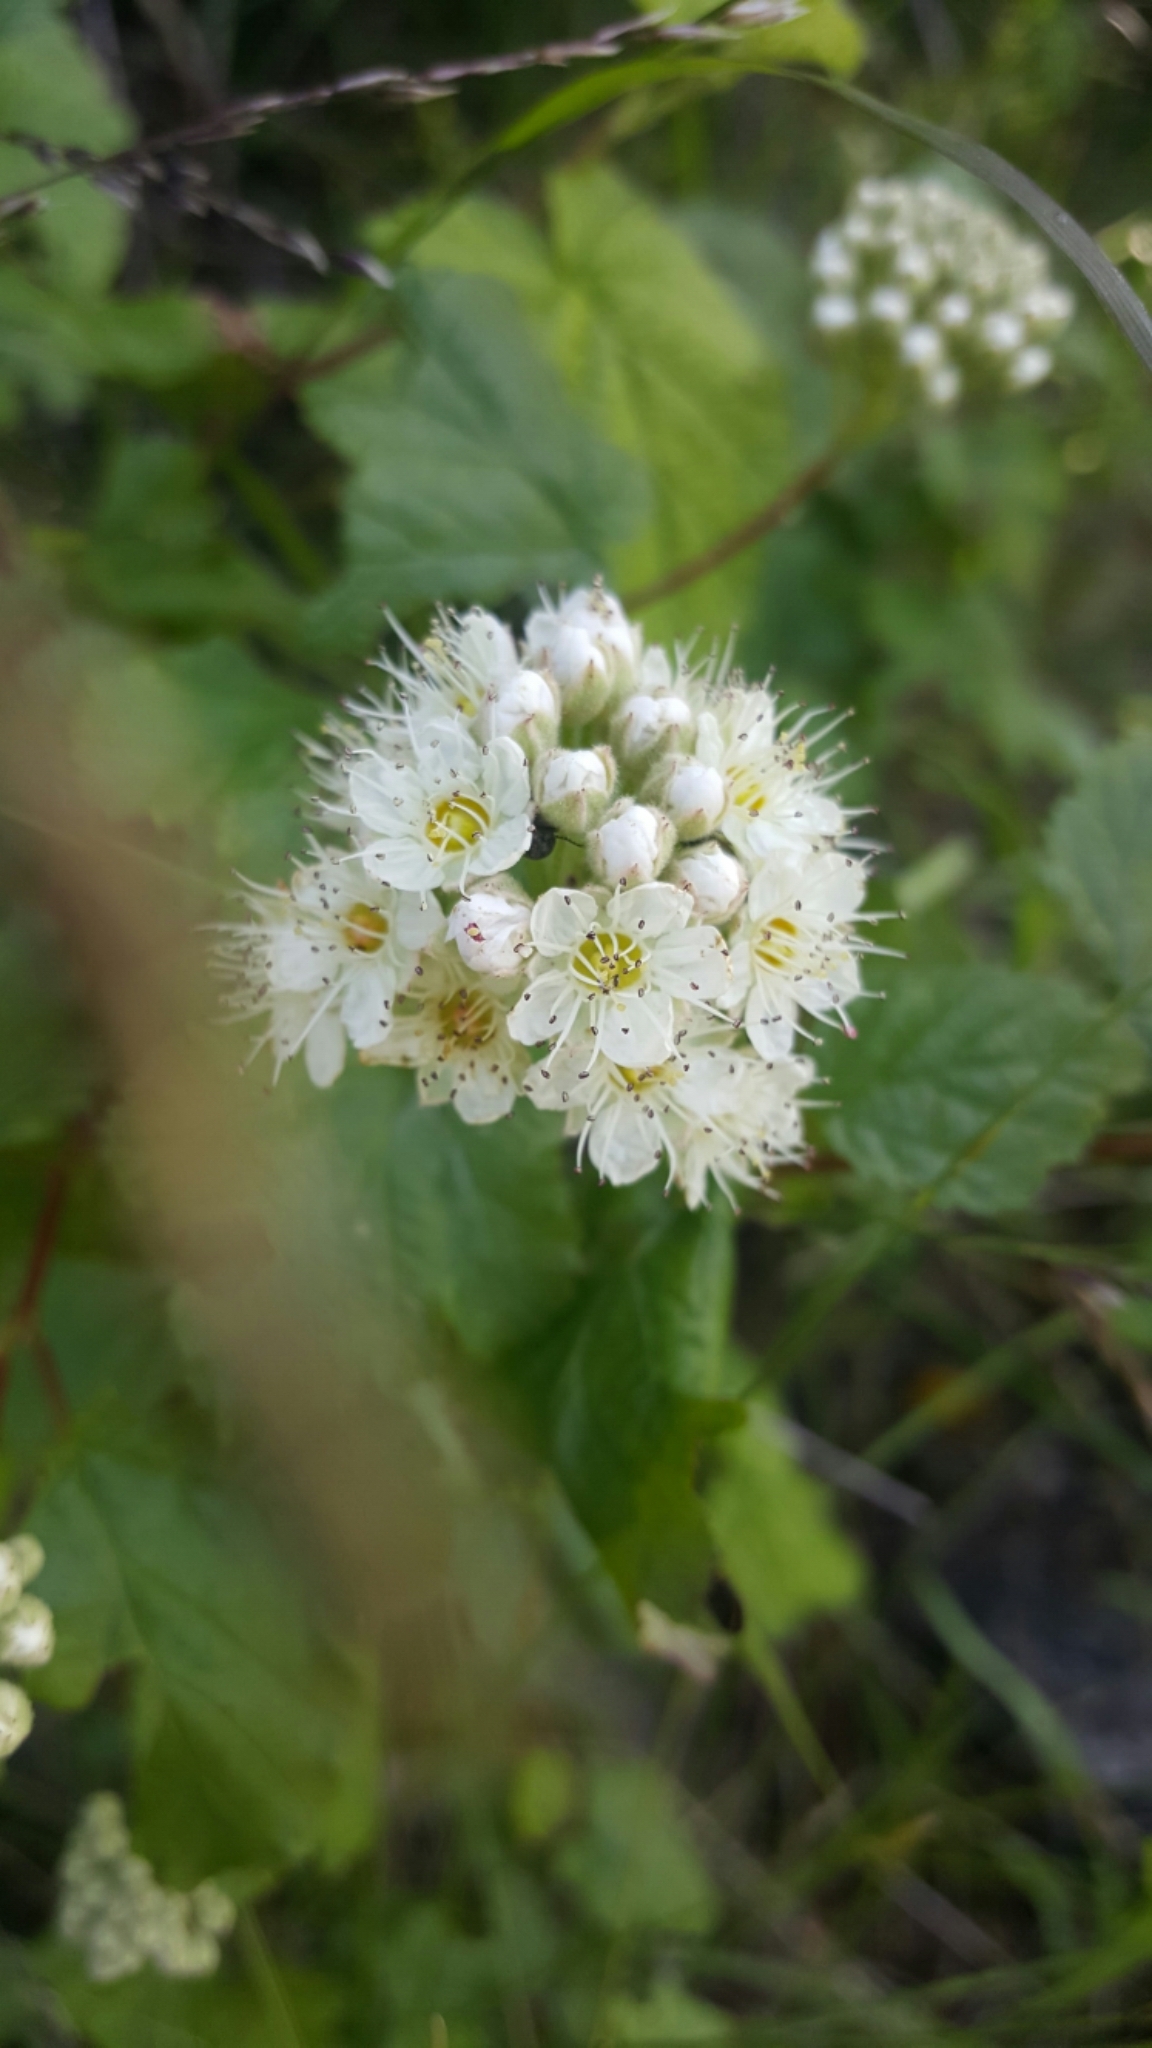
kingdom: Plantae
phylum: Tracheophyta
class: Magnoliopsida
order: Rosales
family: Rosaceae
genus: Physocarpus
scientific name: Physocarpus capitatus
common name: Pacific ninebark
